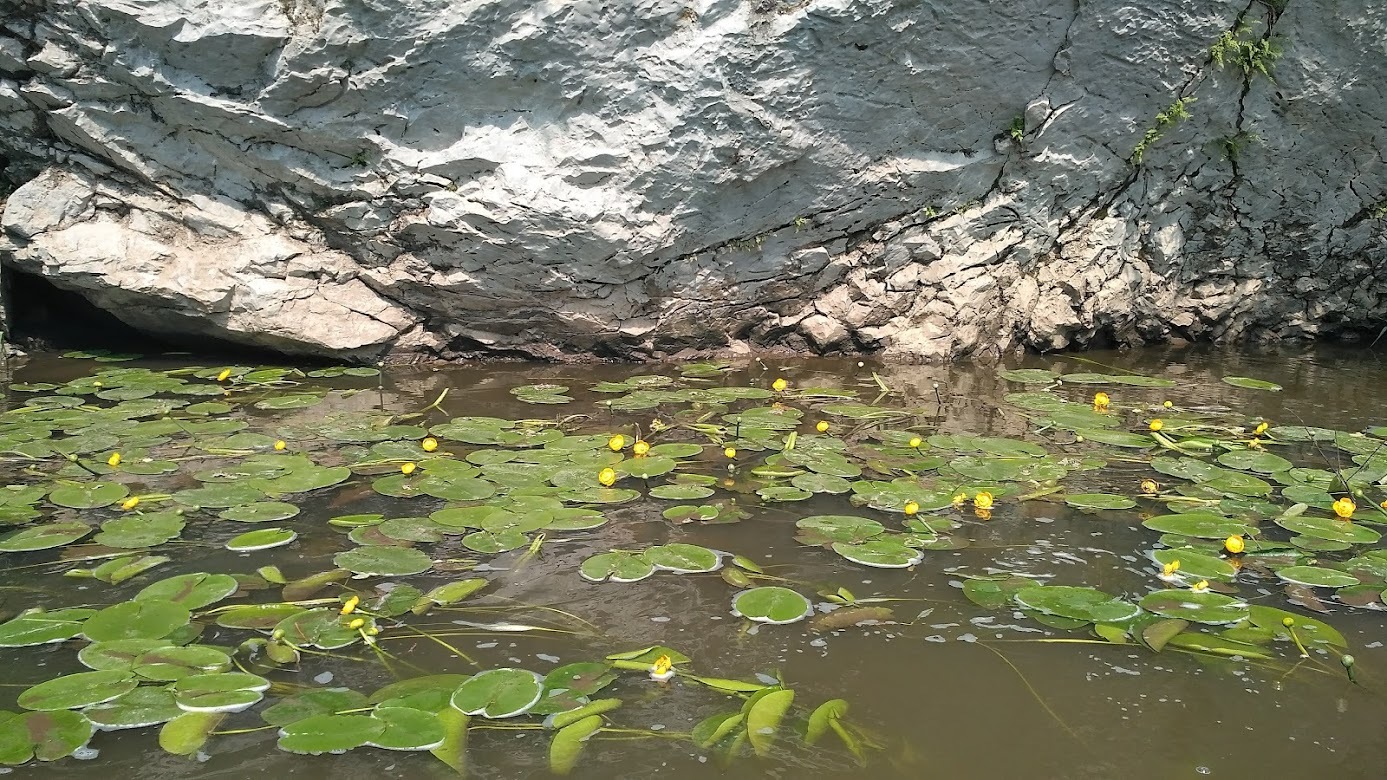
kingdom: Plantae
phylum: Tracheophyta
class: Magnoliopsida
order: Nymphaeales
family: Nymphaeaceae
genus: Nuphar
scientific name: Nuphar lutea
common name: Yellow water-lily
